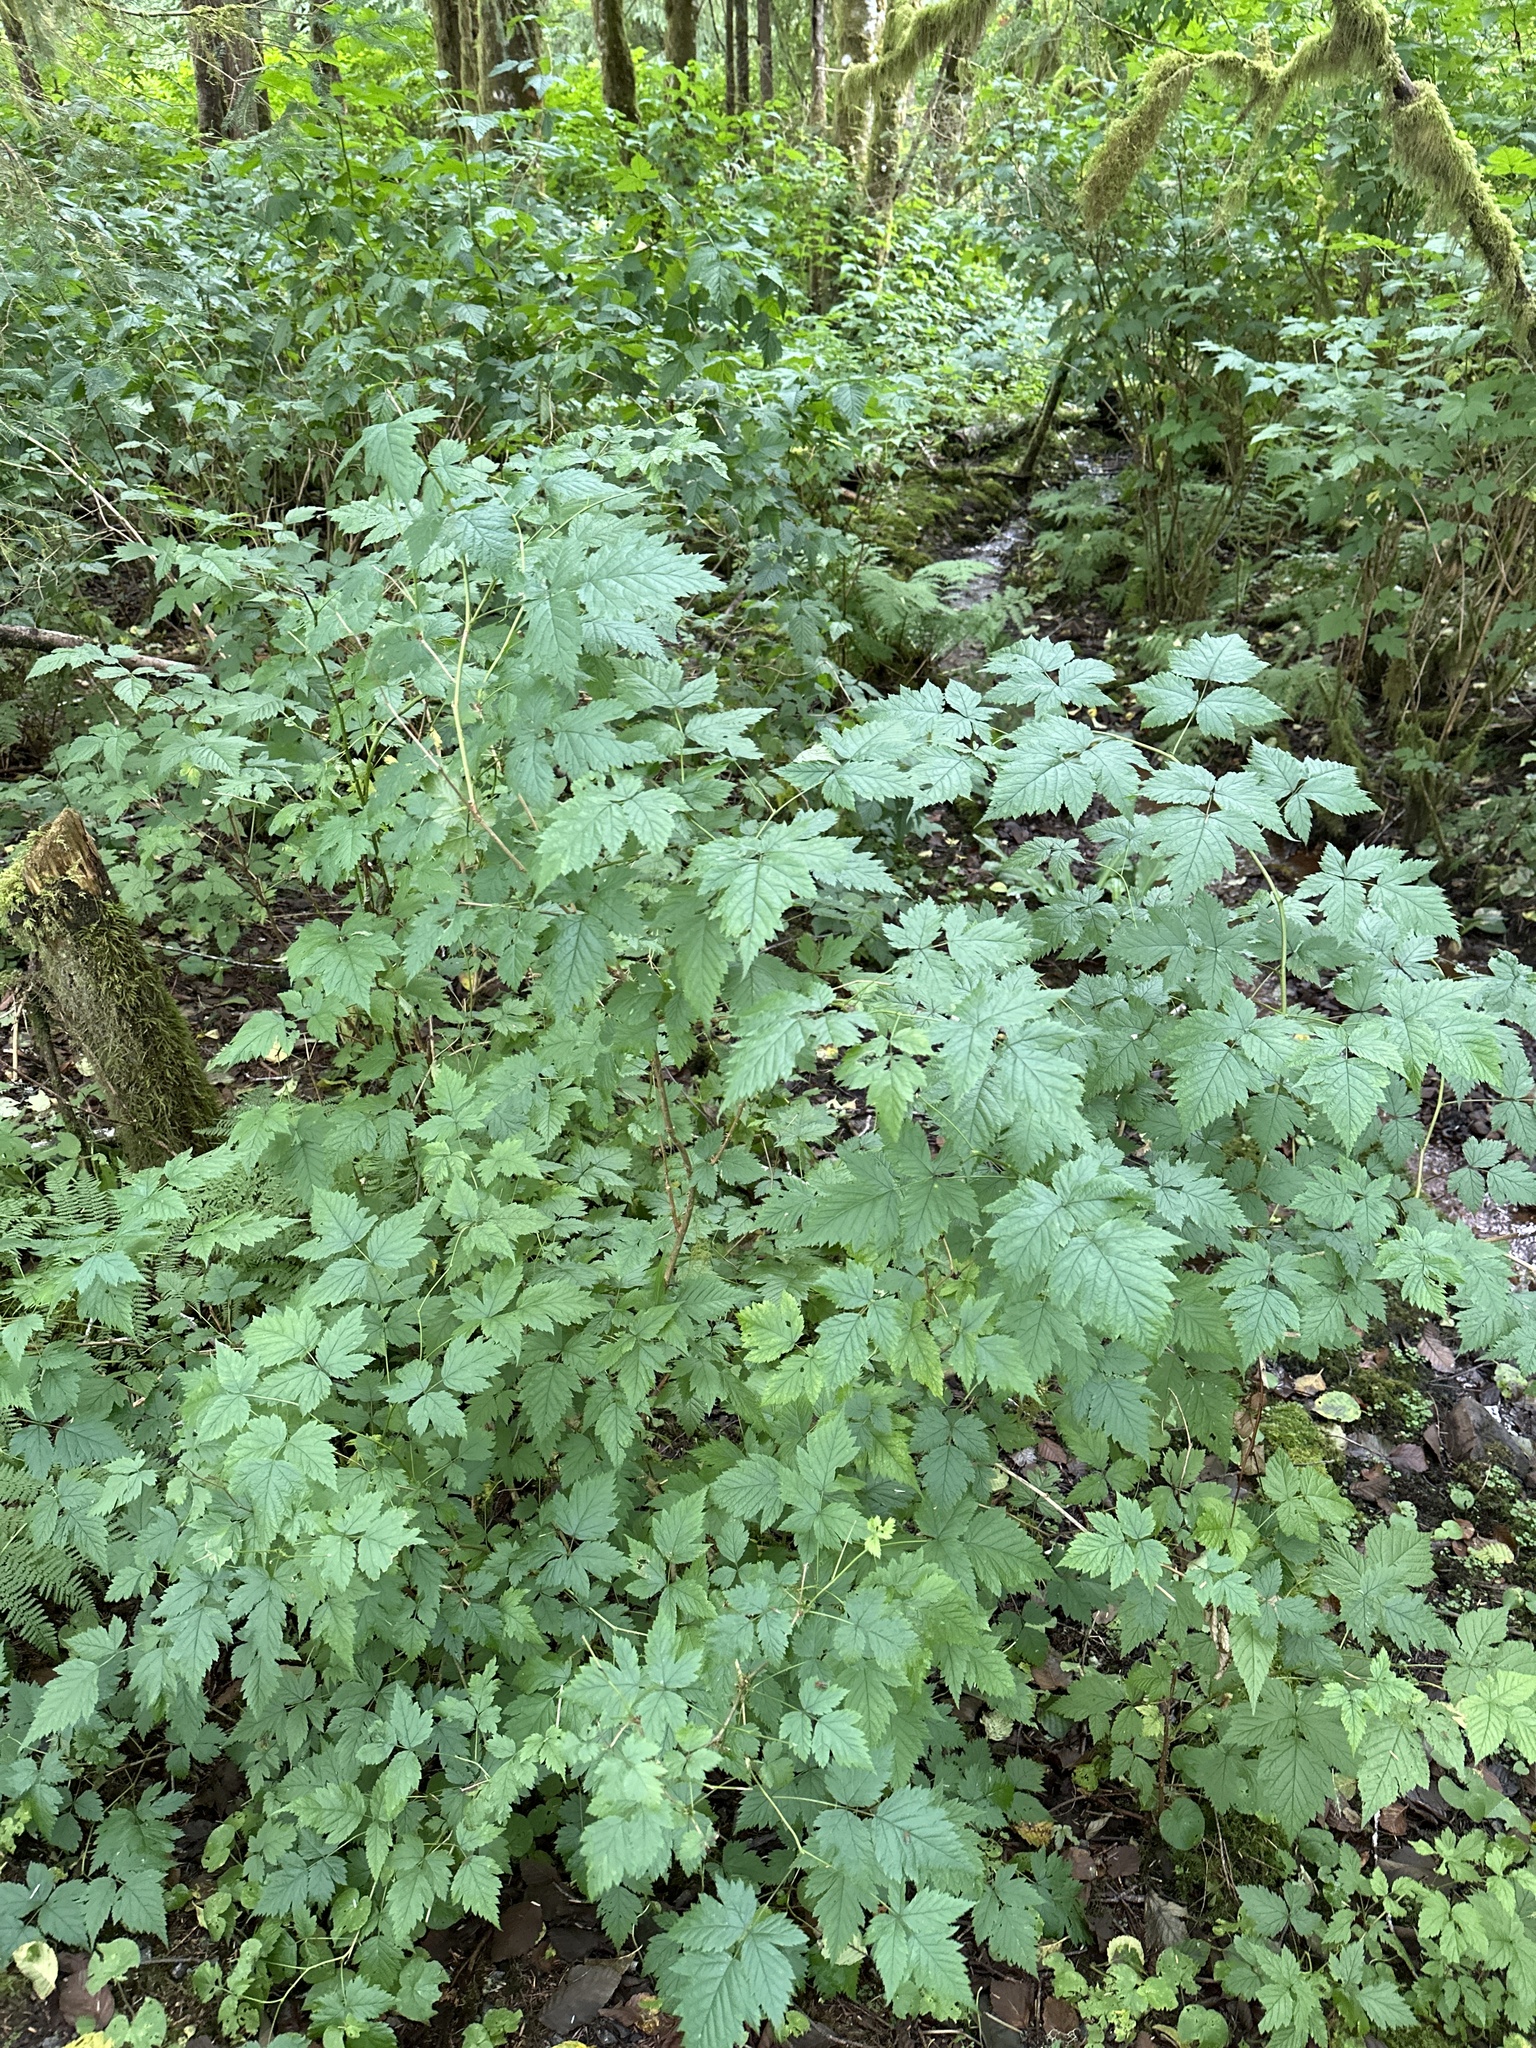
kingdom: Plantae
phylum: Tracheophyta
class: Magnoliopsida
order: Rosales
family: Rosaceae
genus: Rubus
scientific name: Rubus spectabilis
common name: Salmonberry
